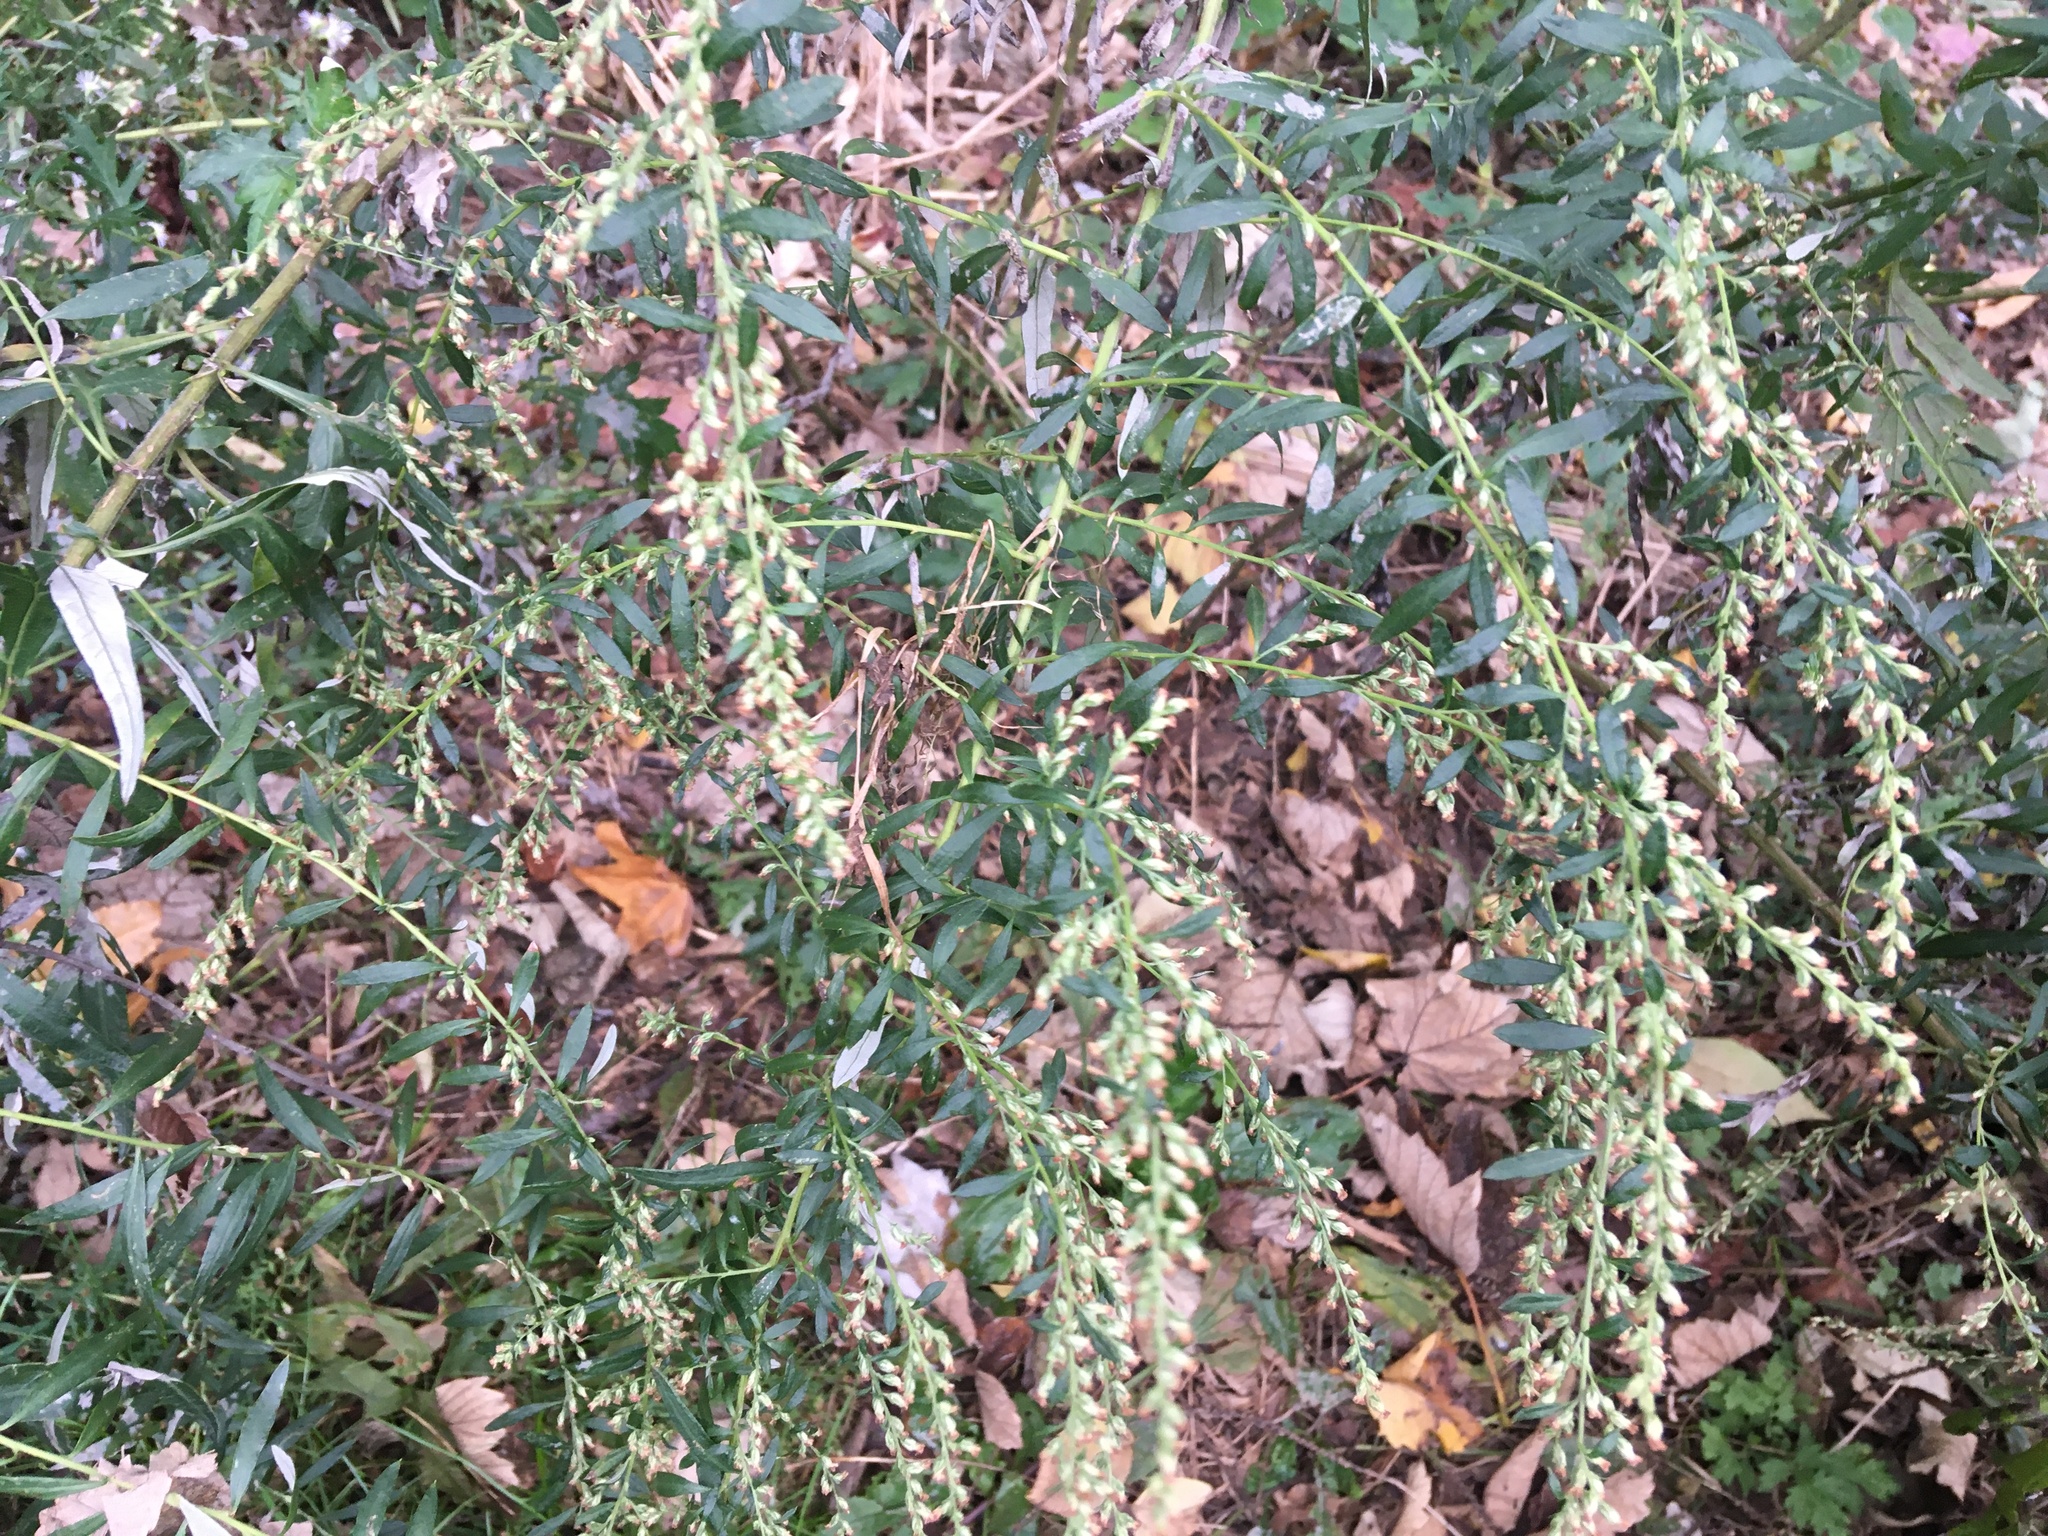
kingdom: Plantae
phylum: Tracheophyta
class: Magnoliopsida
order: Asterales
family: Asteraceae
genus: Artemisia
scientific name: Artemisia vulgaris
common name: Mugwort
